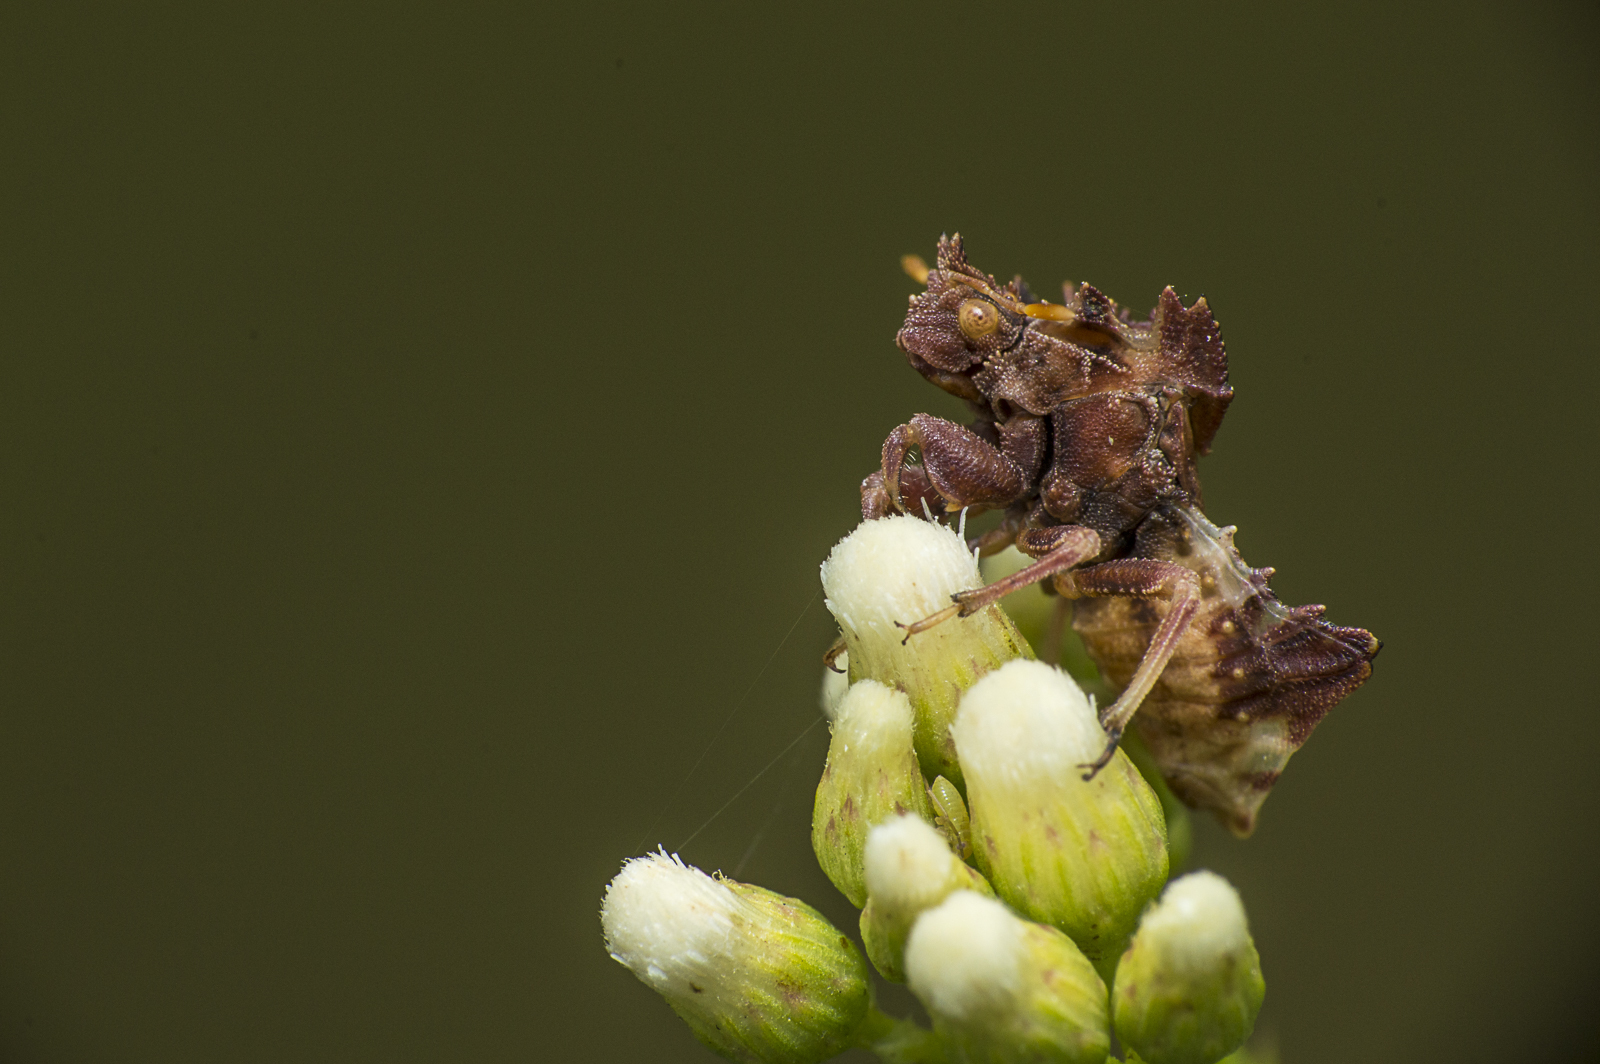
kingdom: Animalia
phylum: Arthropoda
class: Insecta
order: Hemiptera
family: Reduviidae
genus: Phymata
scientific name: Phymata fortificata
